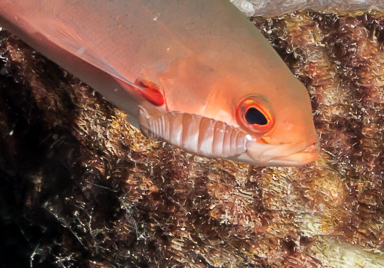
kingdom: Animalia
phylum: Arthropoda
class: Malacostraca
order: Isopoda
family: Cymothoidae
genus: Anilocra
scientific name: Anilocra haemuli
